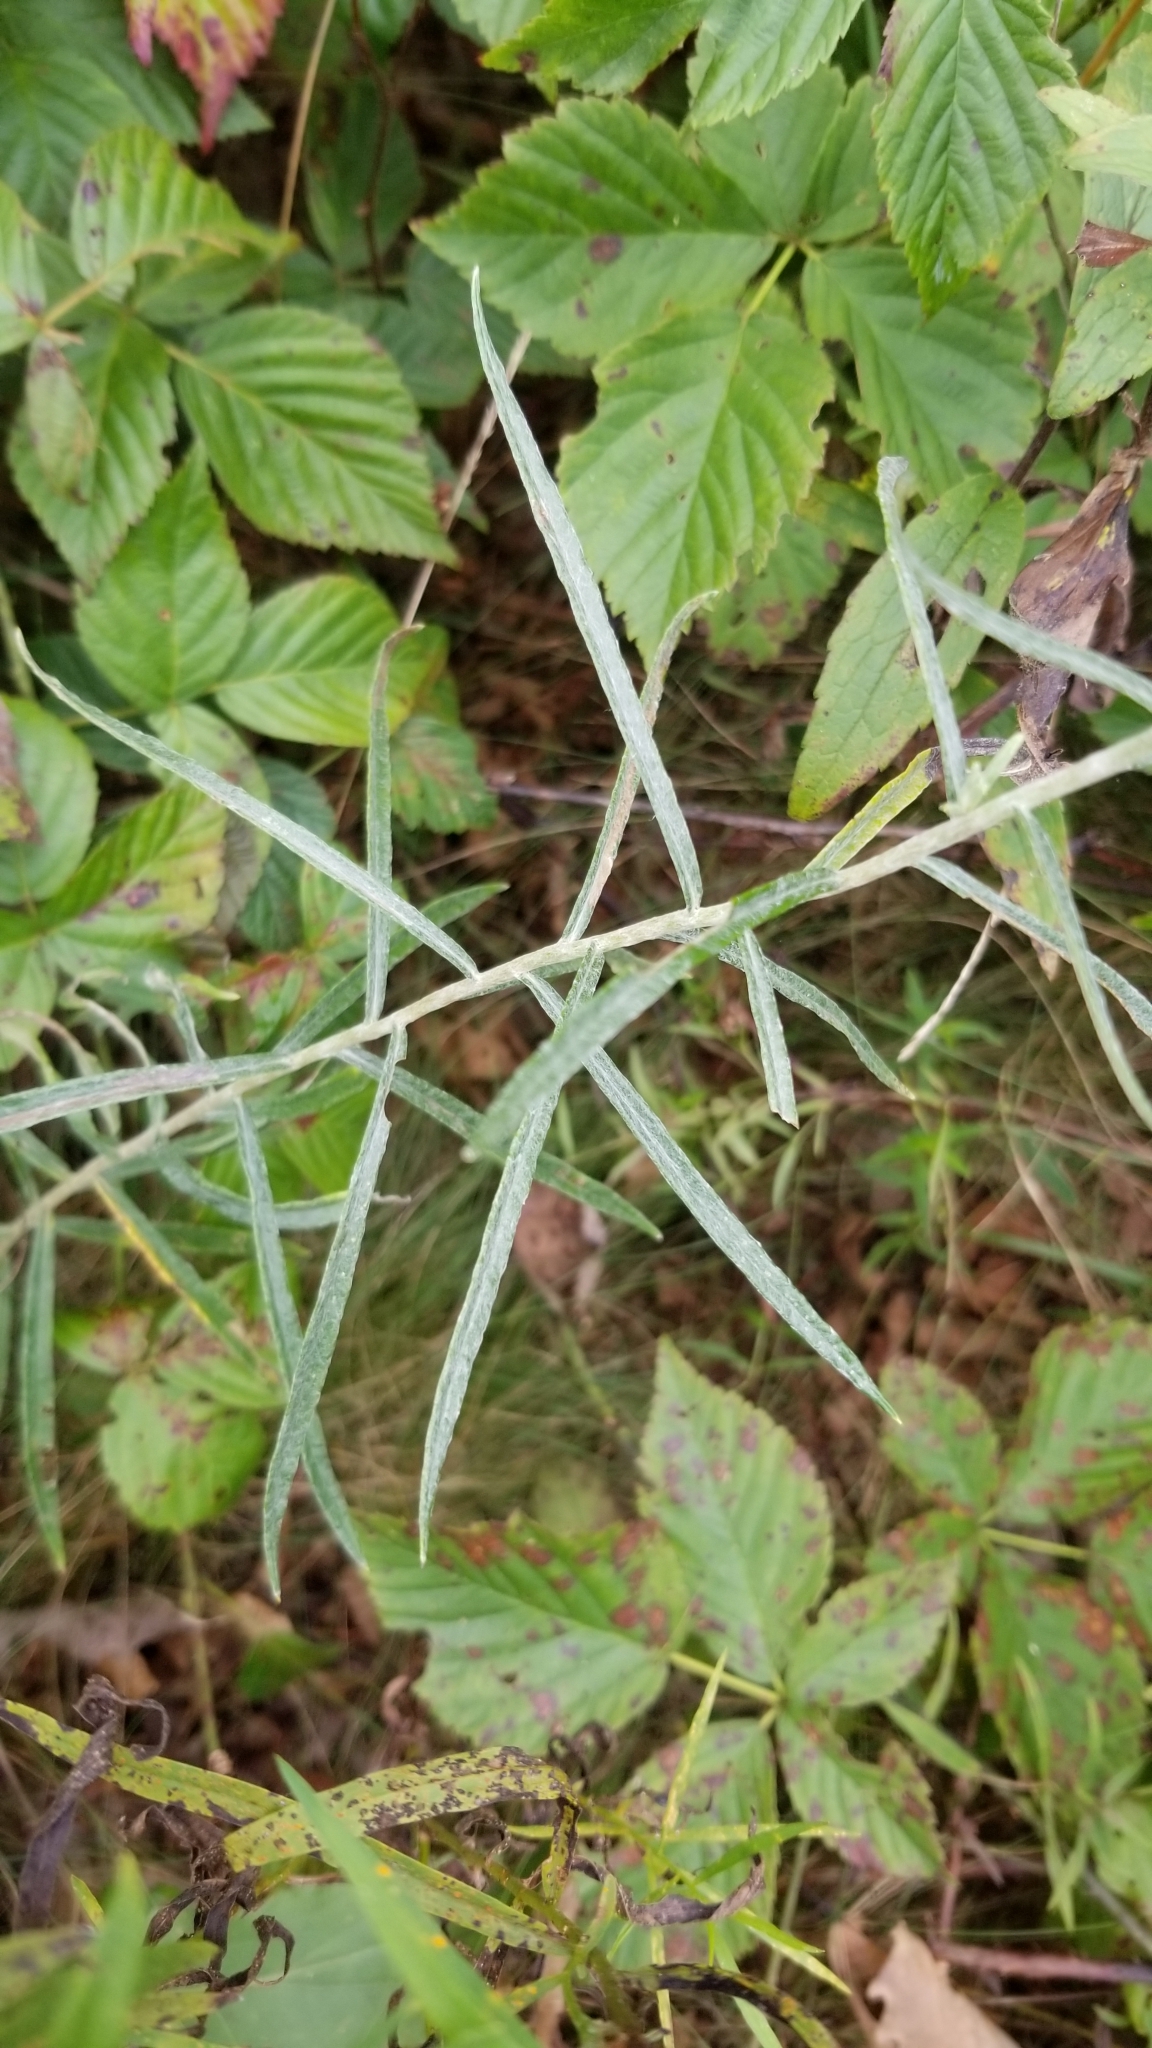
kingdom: Plantae
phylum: Tracheophyta
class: Magnoliopsida
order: Asterales
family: Asteraceae
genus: Anaphalis
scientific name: Anaphalis margaritacea
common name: Pearly everlasting
